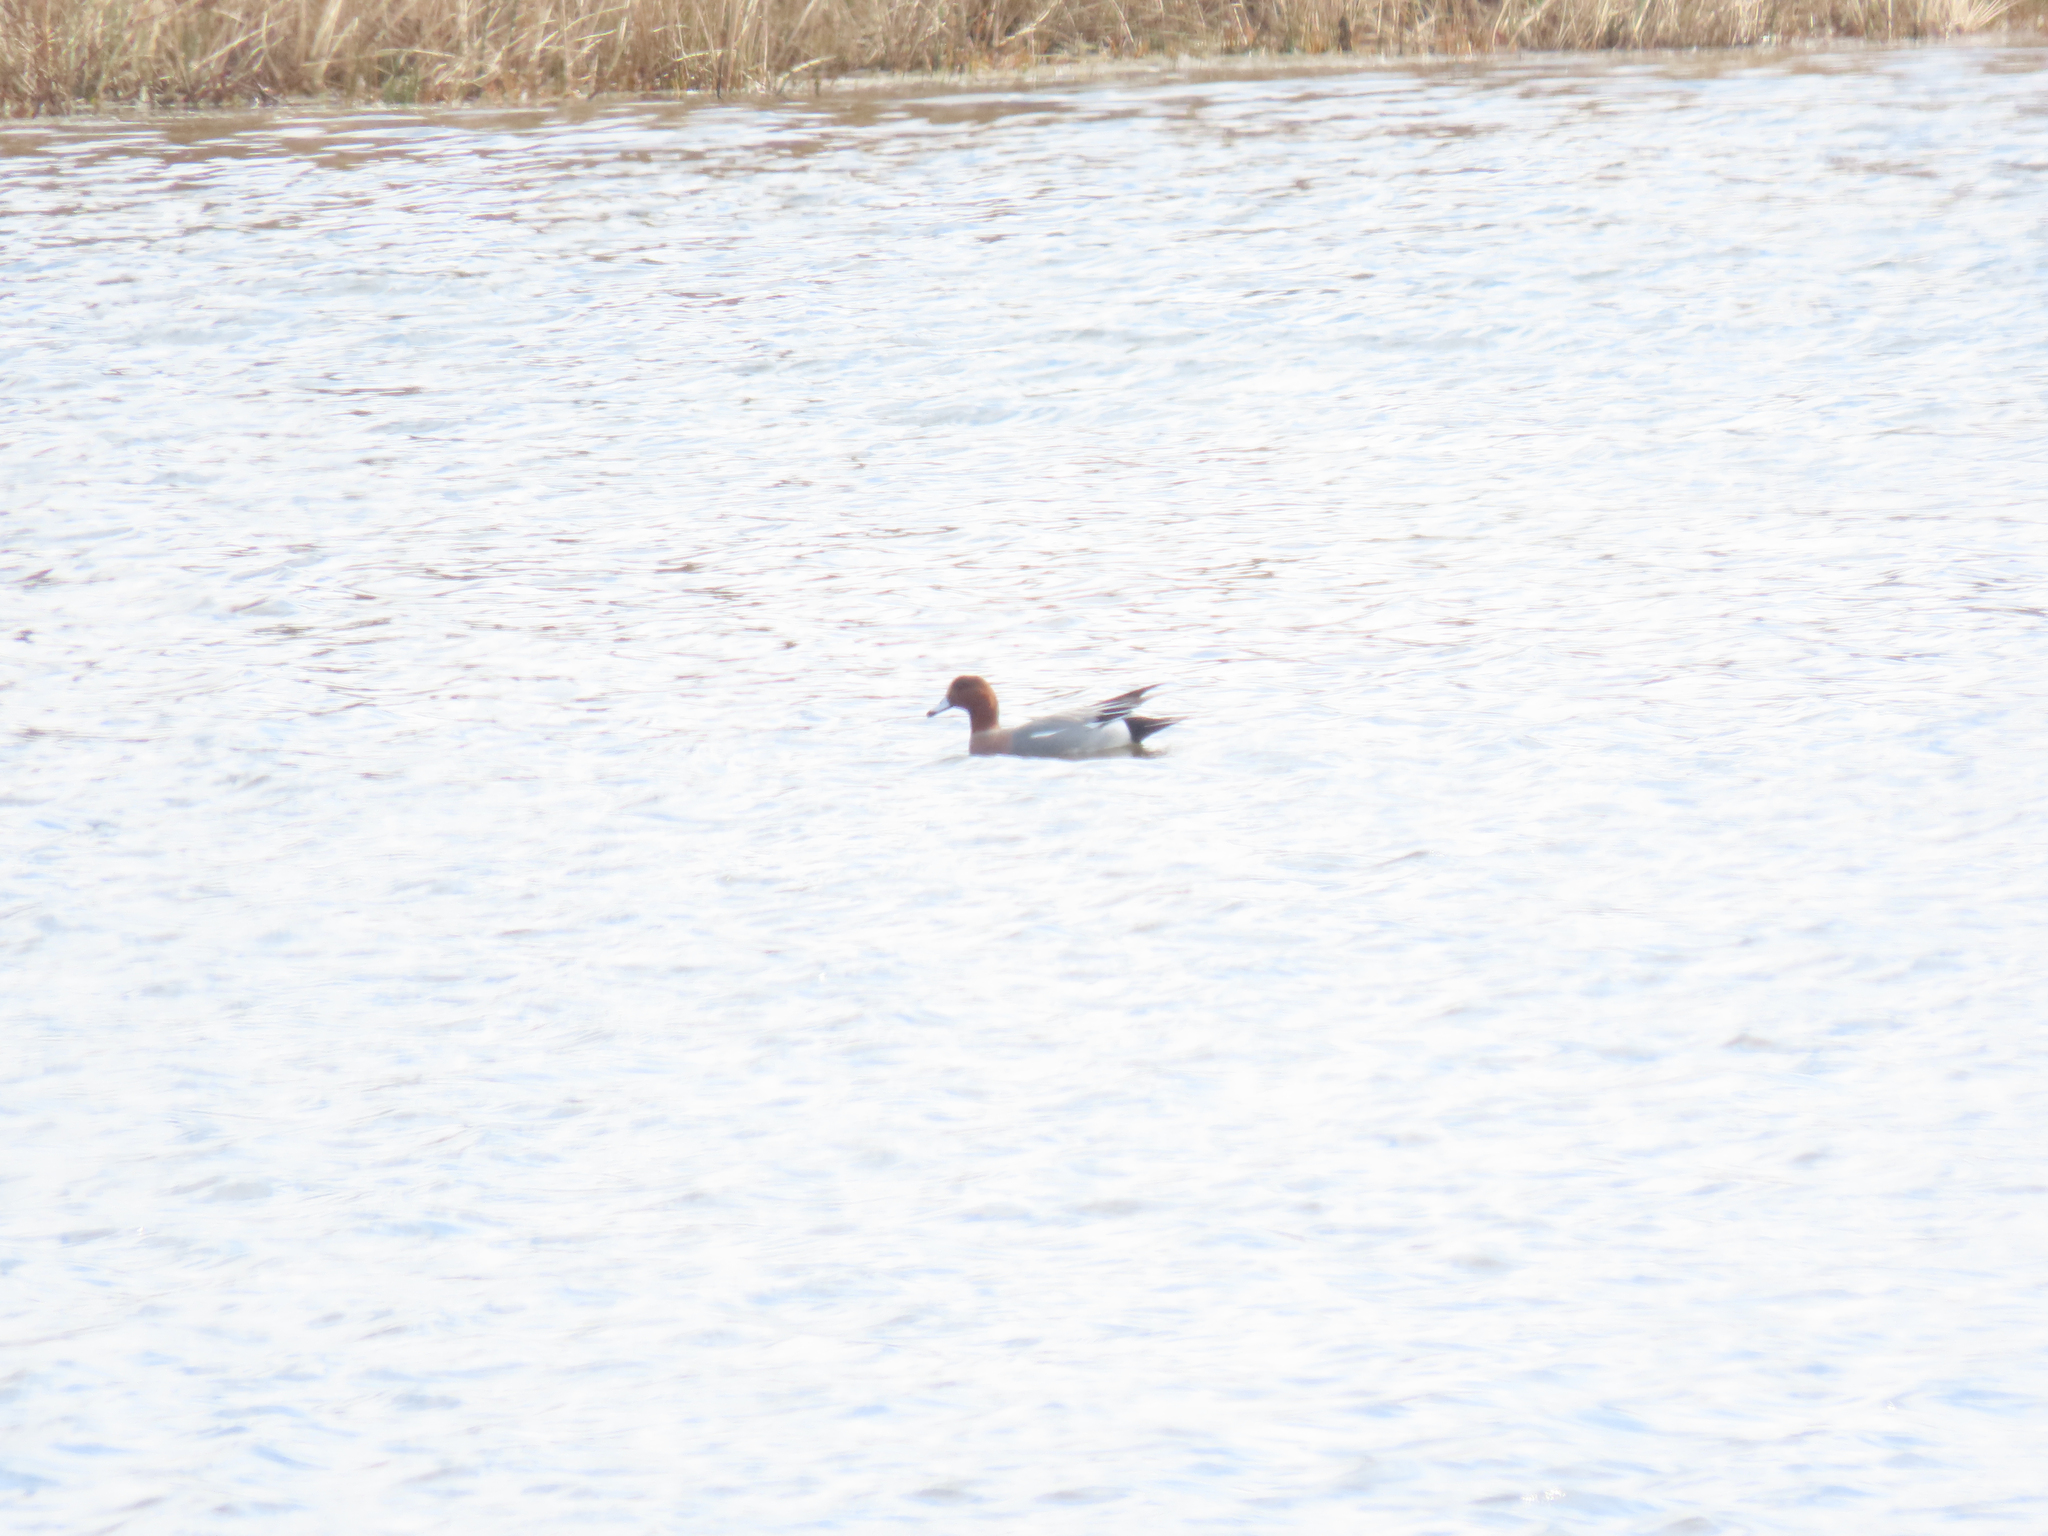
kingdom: Animalia
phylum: Chordata
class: Aves
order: Anseriformes
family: Anatidae
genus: Mareca
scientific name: Mareca penelope
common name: Eurasian wigeon
